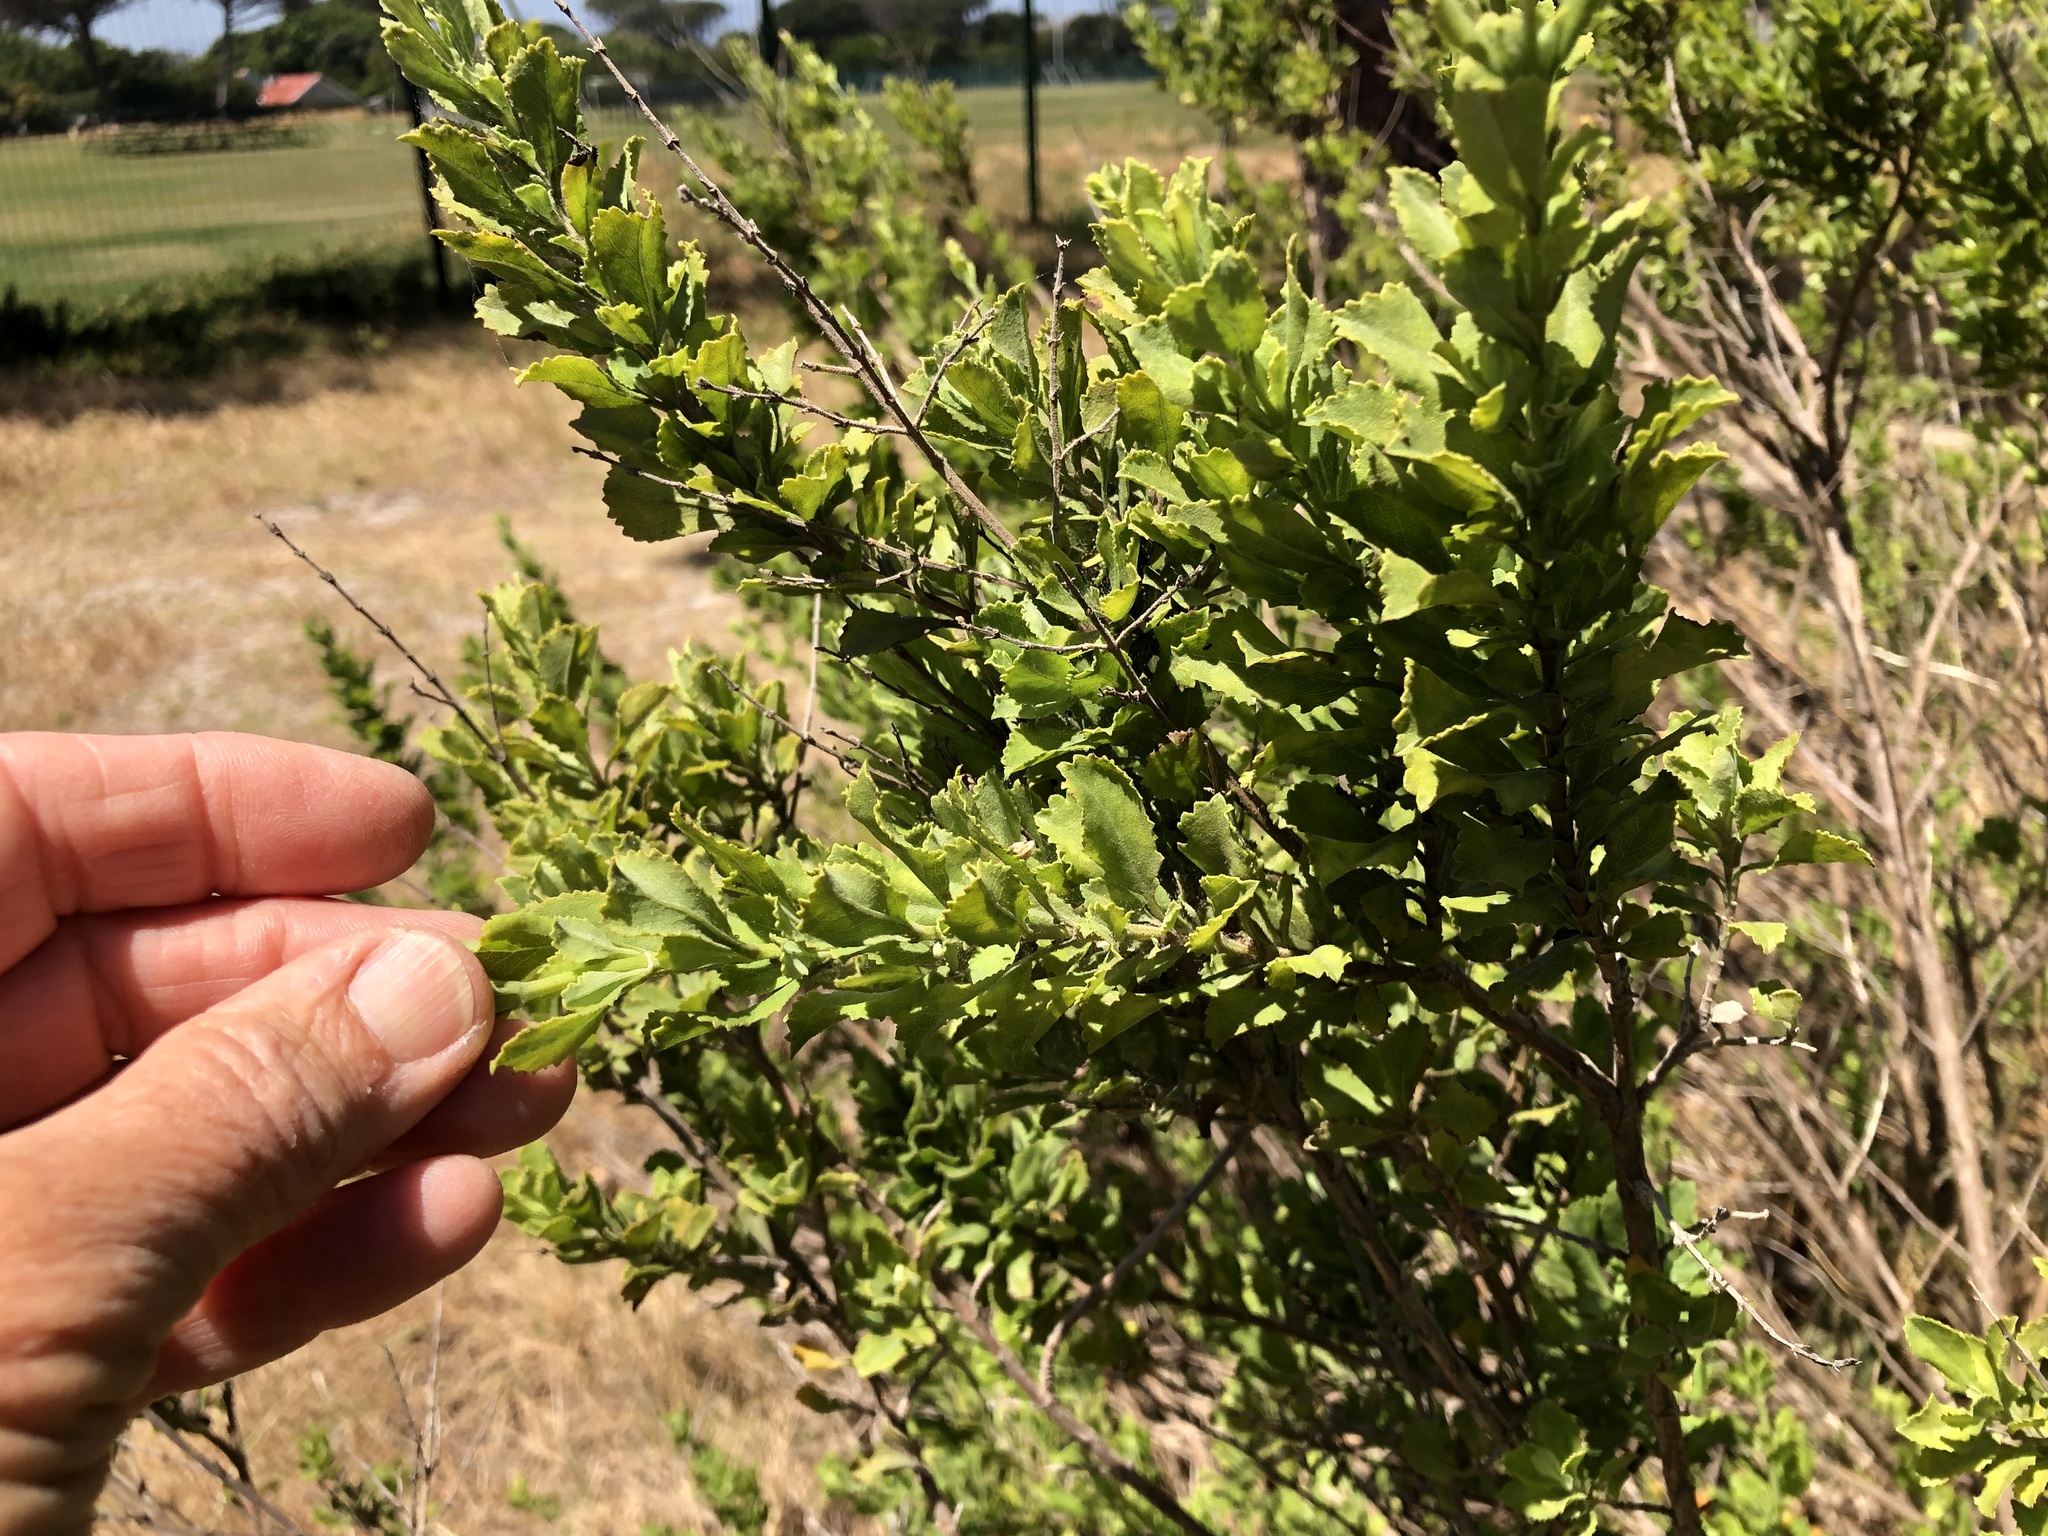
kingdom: Plantae
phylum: Tracheophyta
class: Magnoliopsida
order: Lamiales
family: Lamiaceae
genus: Salvia
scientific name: Salvia chamelaeagnea
